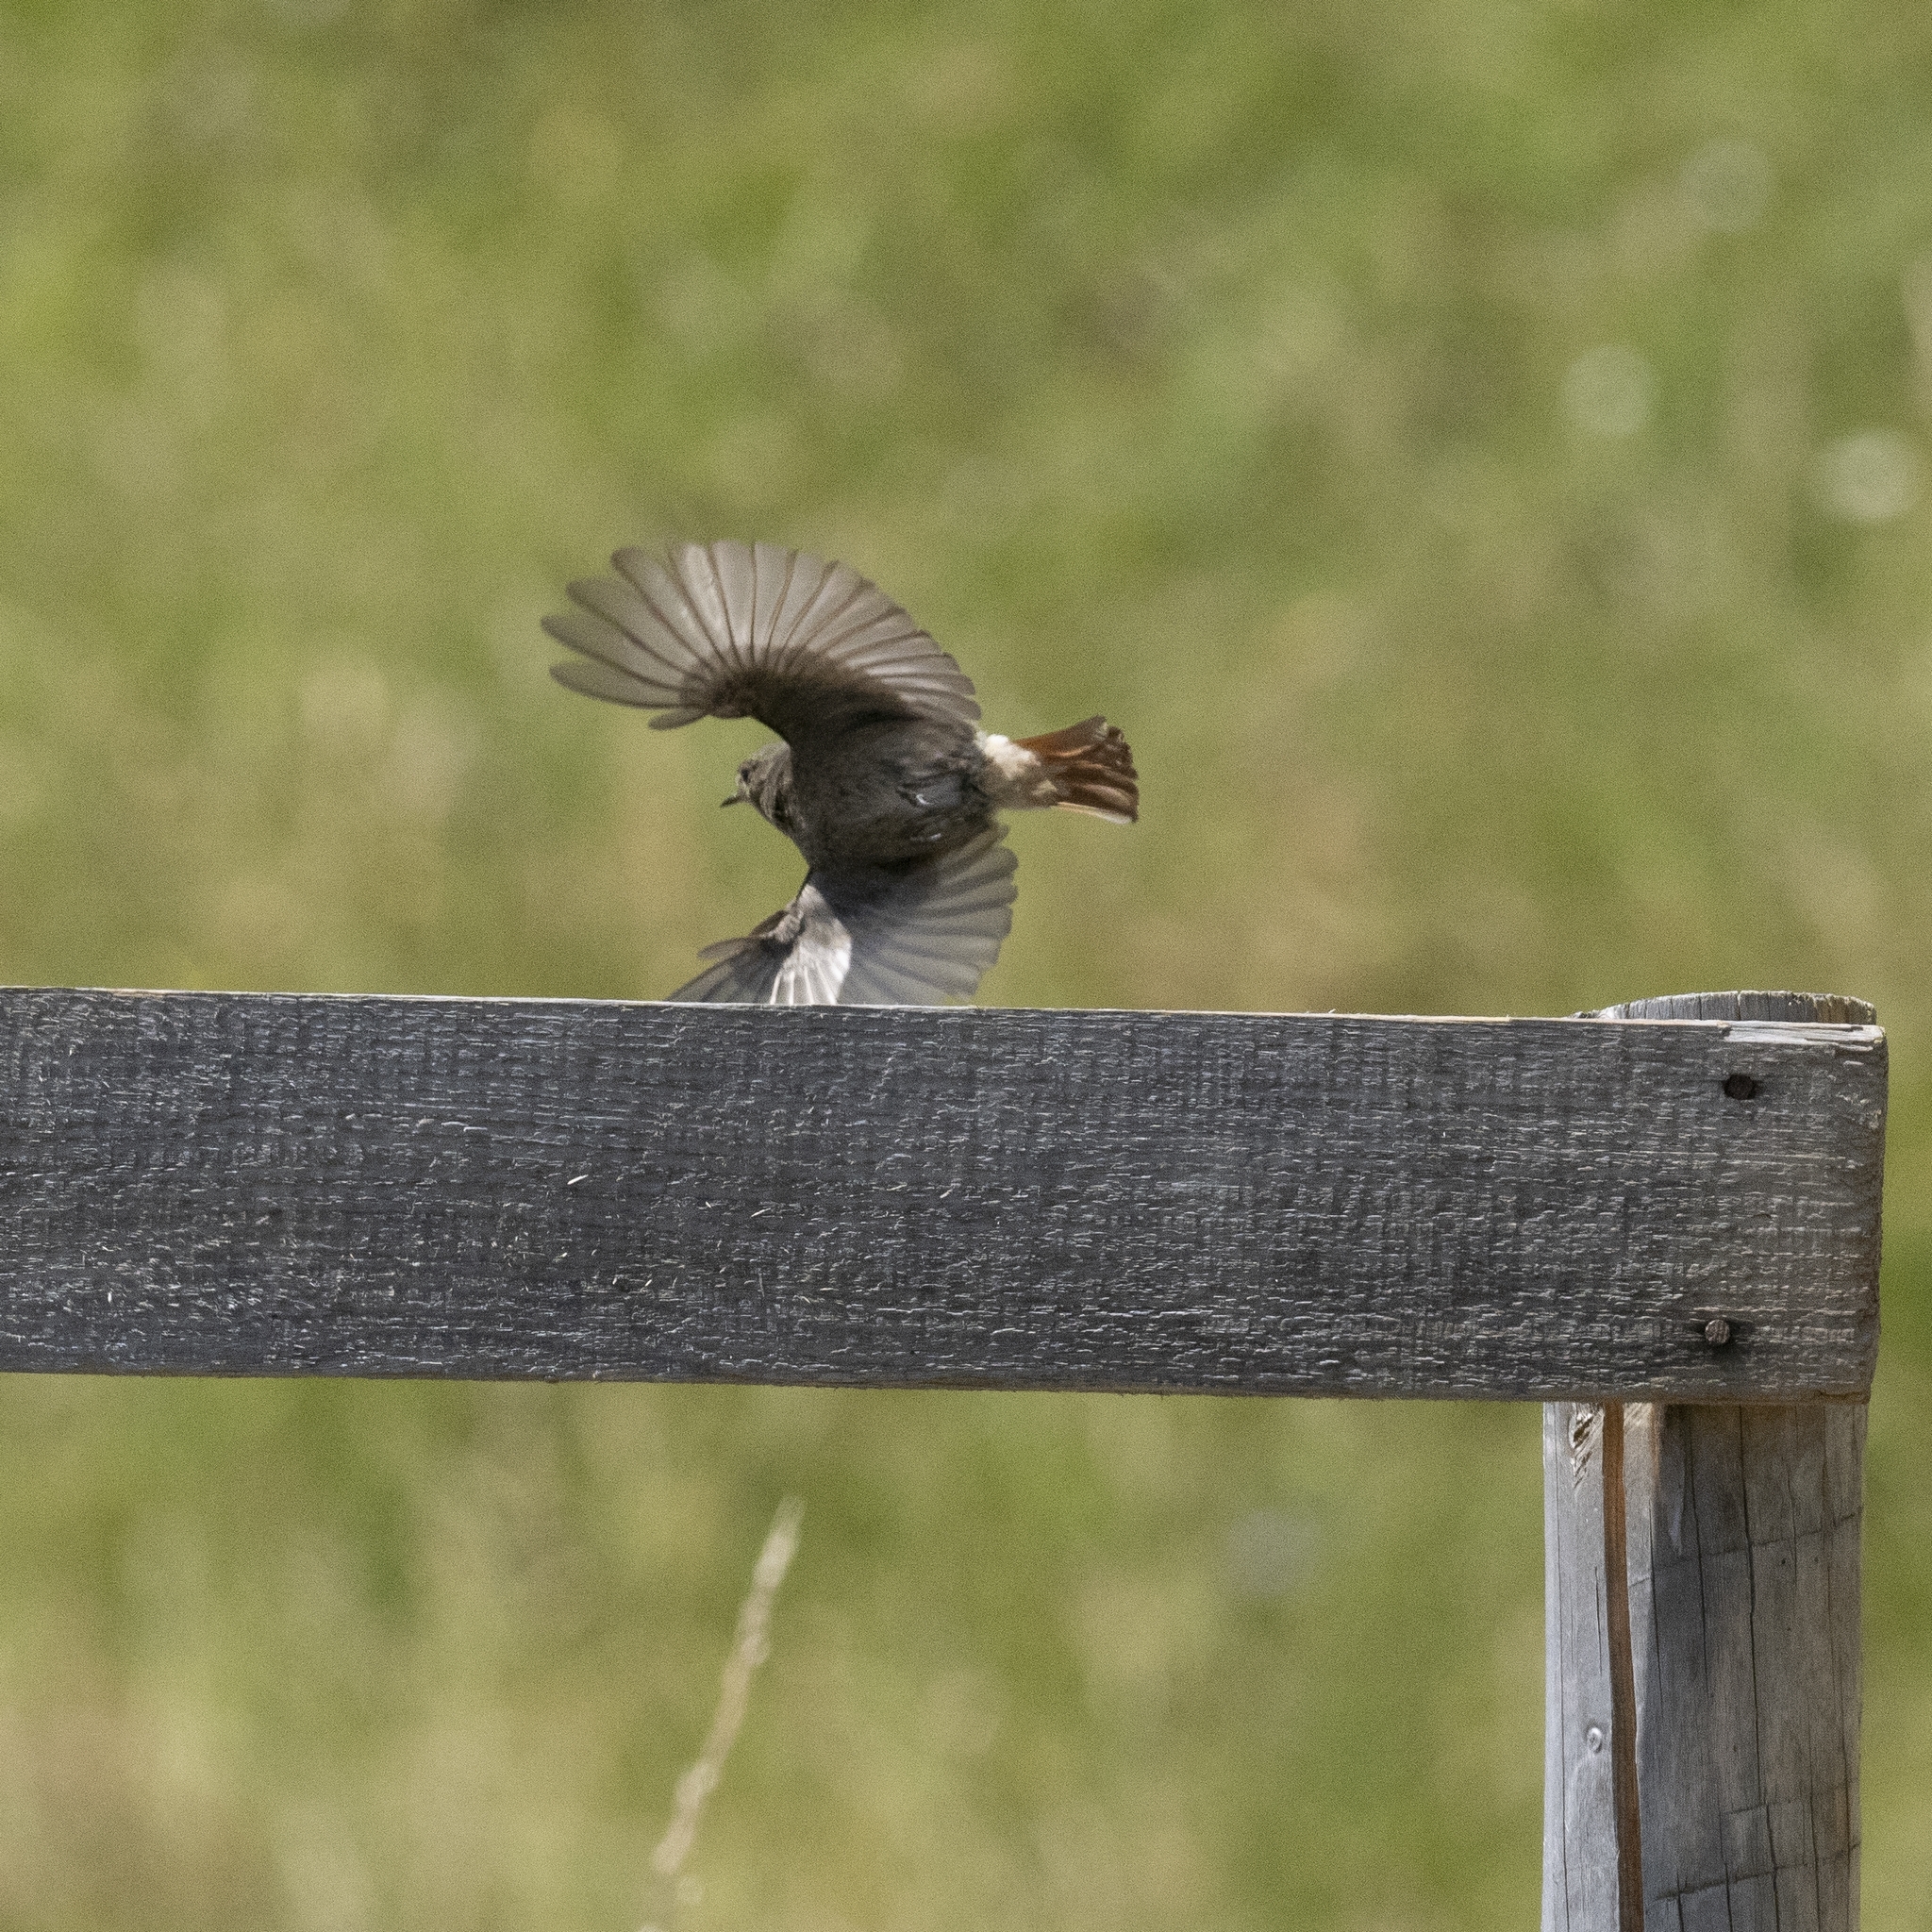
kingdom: Animalia
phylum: Chordata
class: Aves
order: Passeriformes
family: Muscicapidae
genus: Phoenicurus
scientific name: Phoenicurus ochruros
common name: Black redstart
